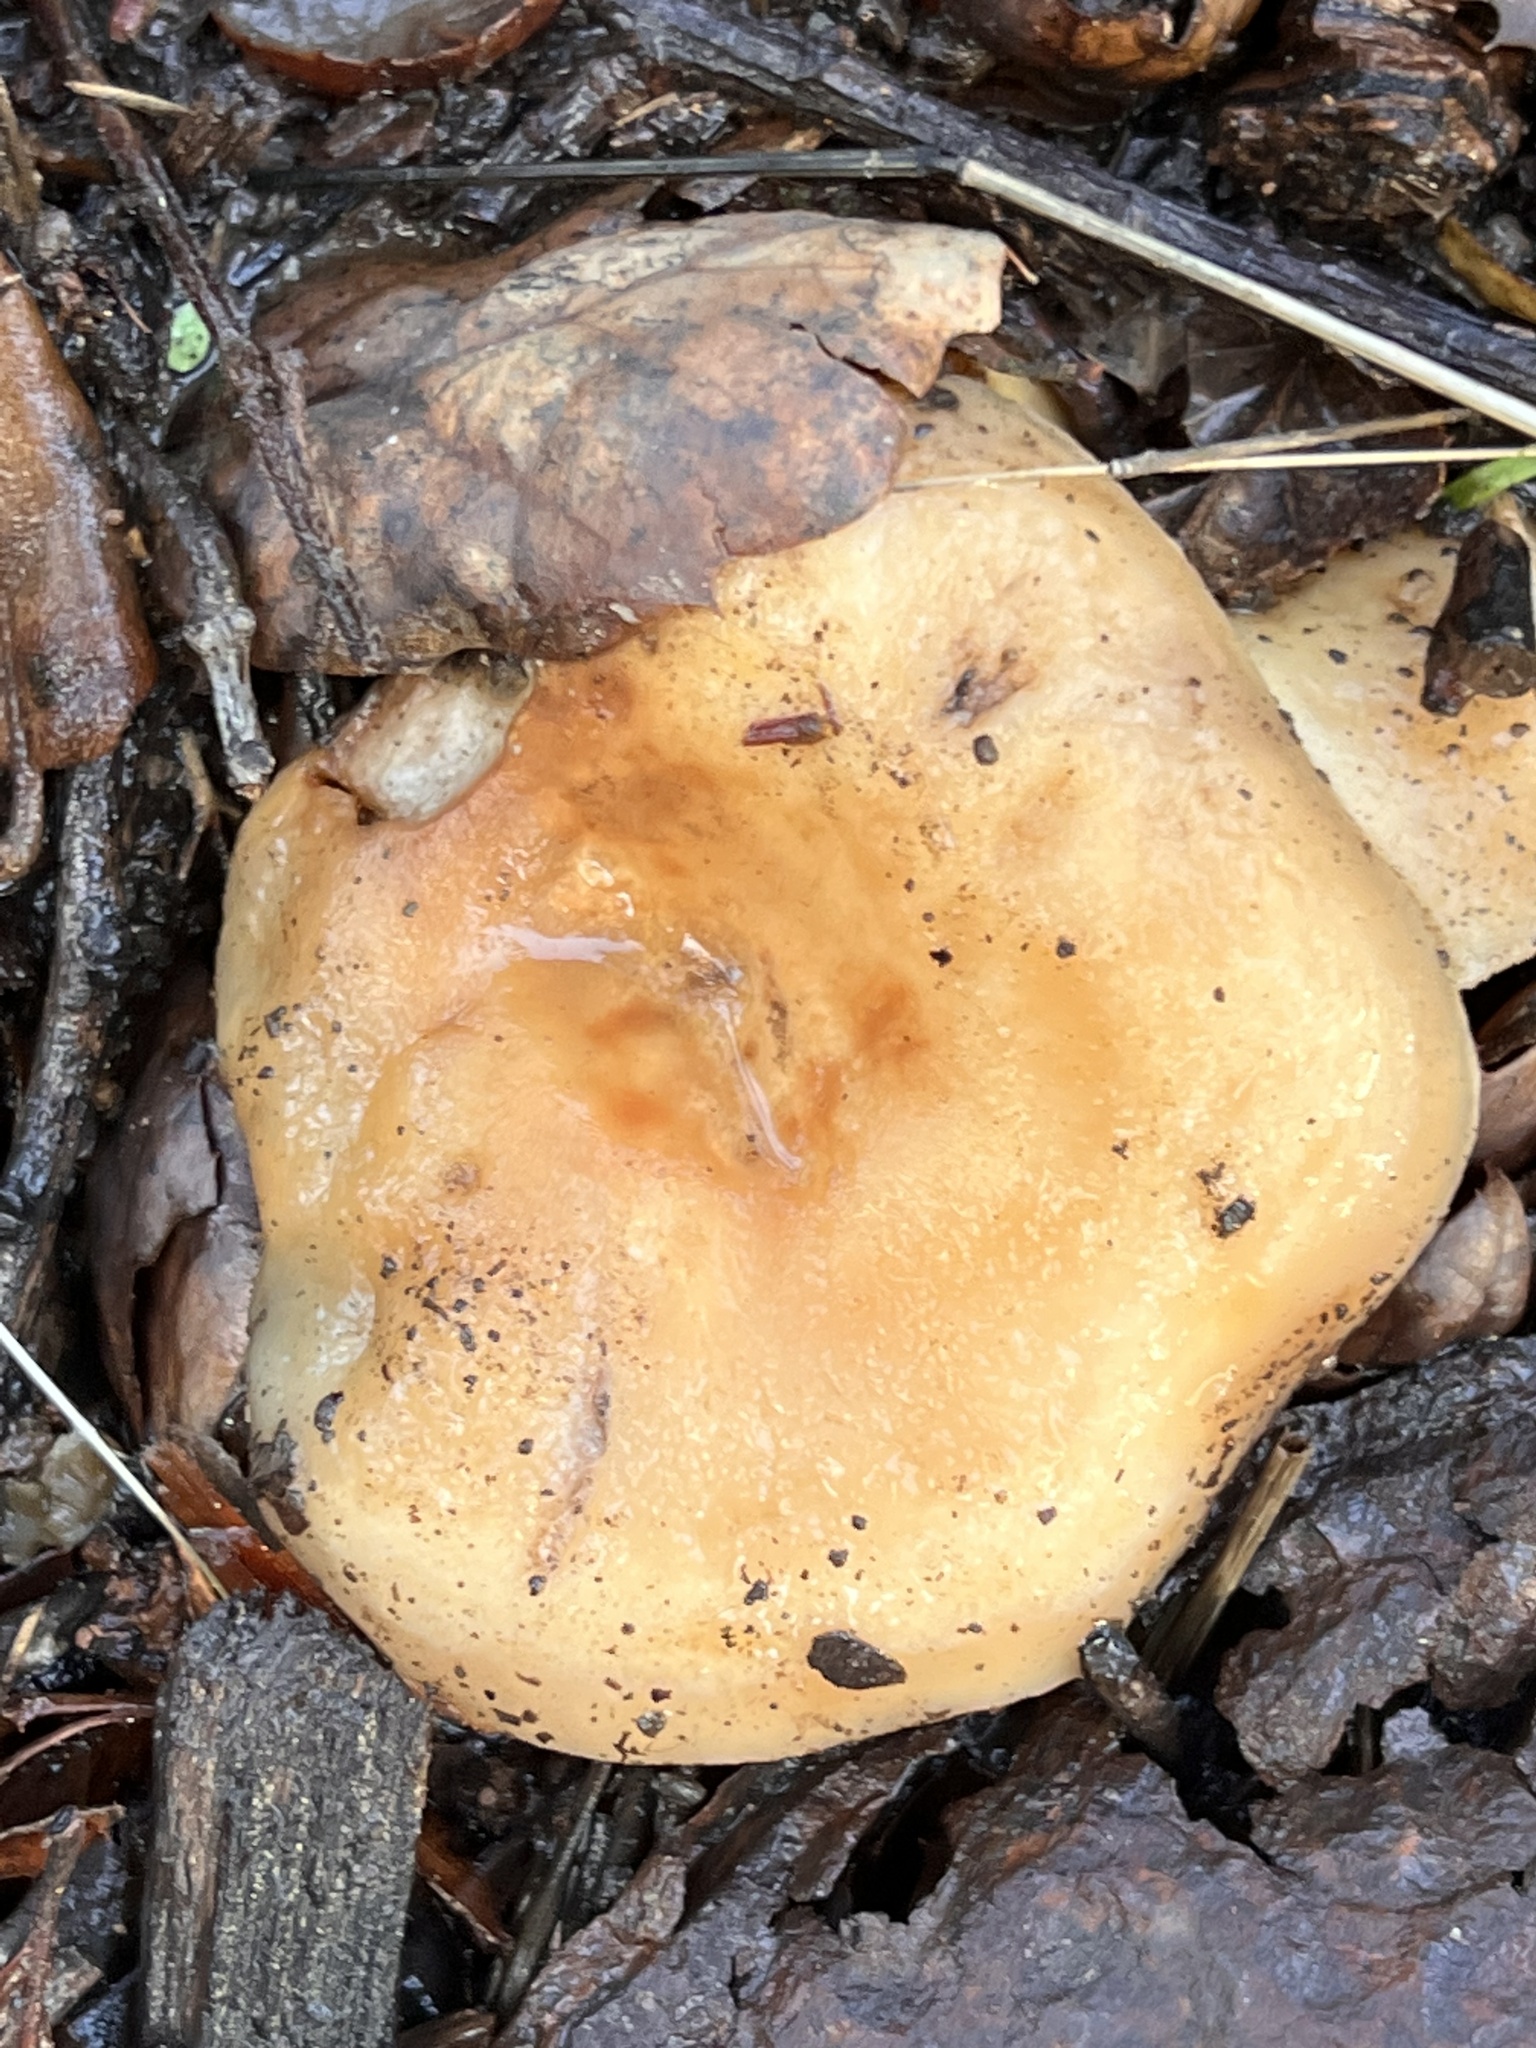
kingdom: Fungi
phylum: Basidiomycota
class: Agaricomycetes
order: Russulales
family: Russulaceae
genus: Lactarius
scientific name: Lactarius alnicola
